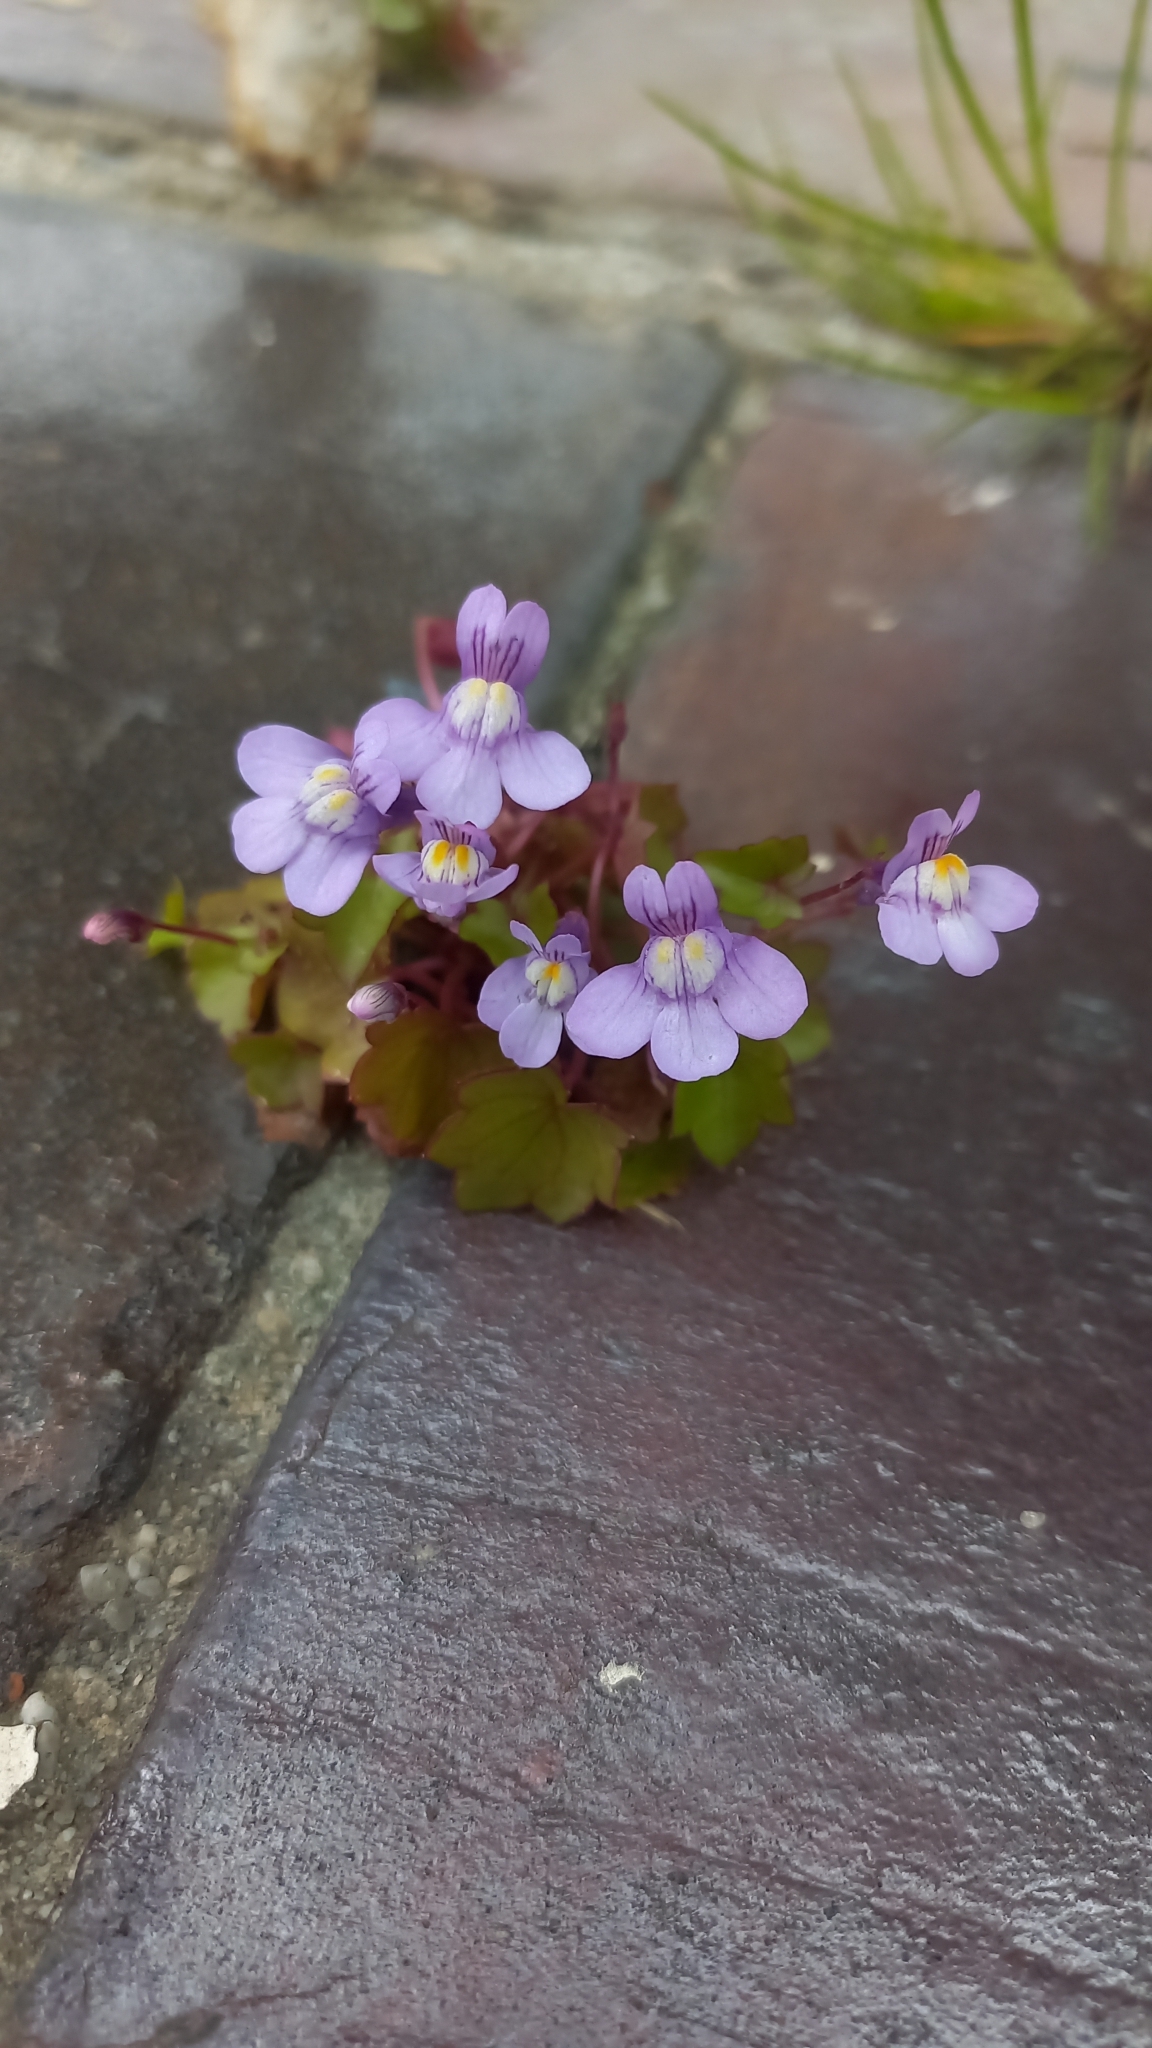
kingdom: Plantae
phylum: Tracheophyta
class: Magnoliopsida
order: Lamiales
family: Plantaginaceae
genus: Cymbalaria
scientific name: Cymbalaria muralis
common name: Ivy-leaved toadflax
